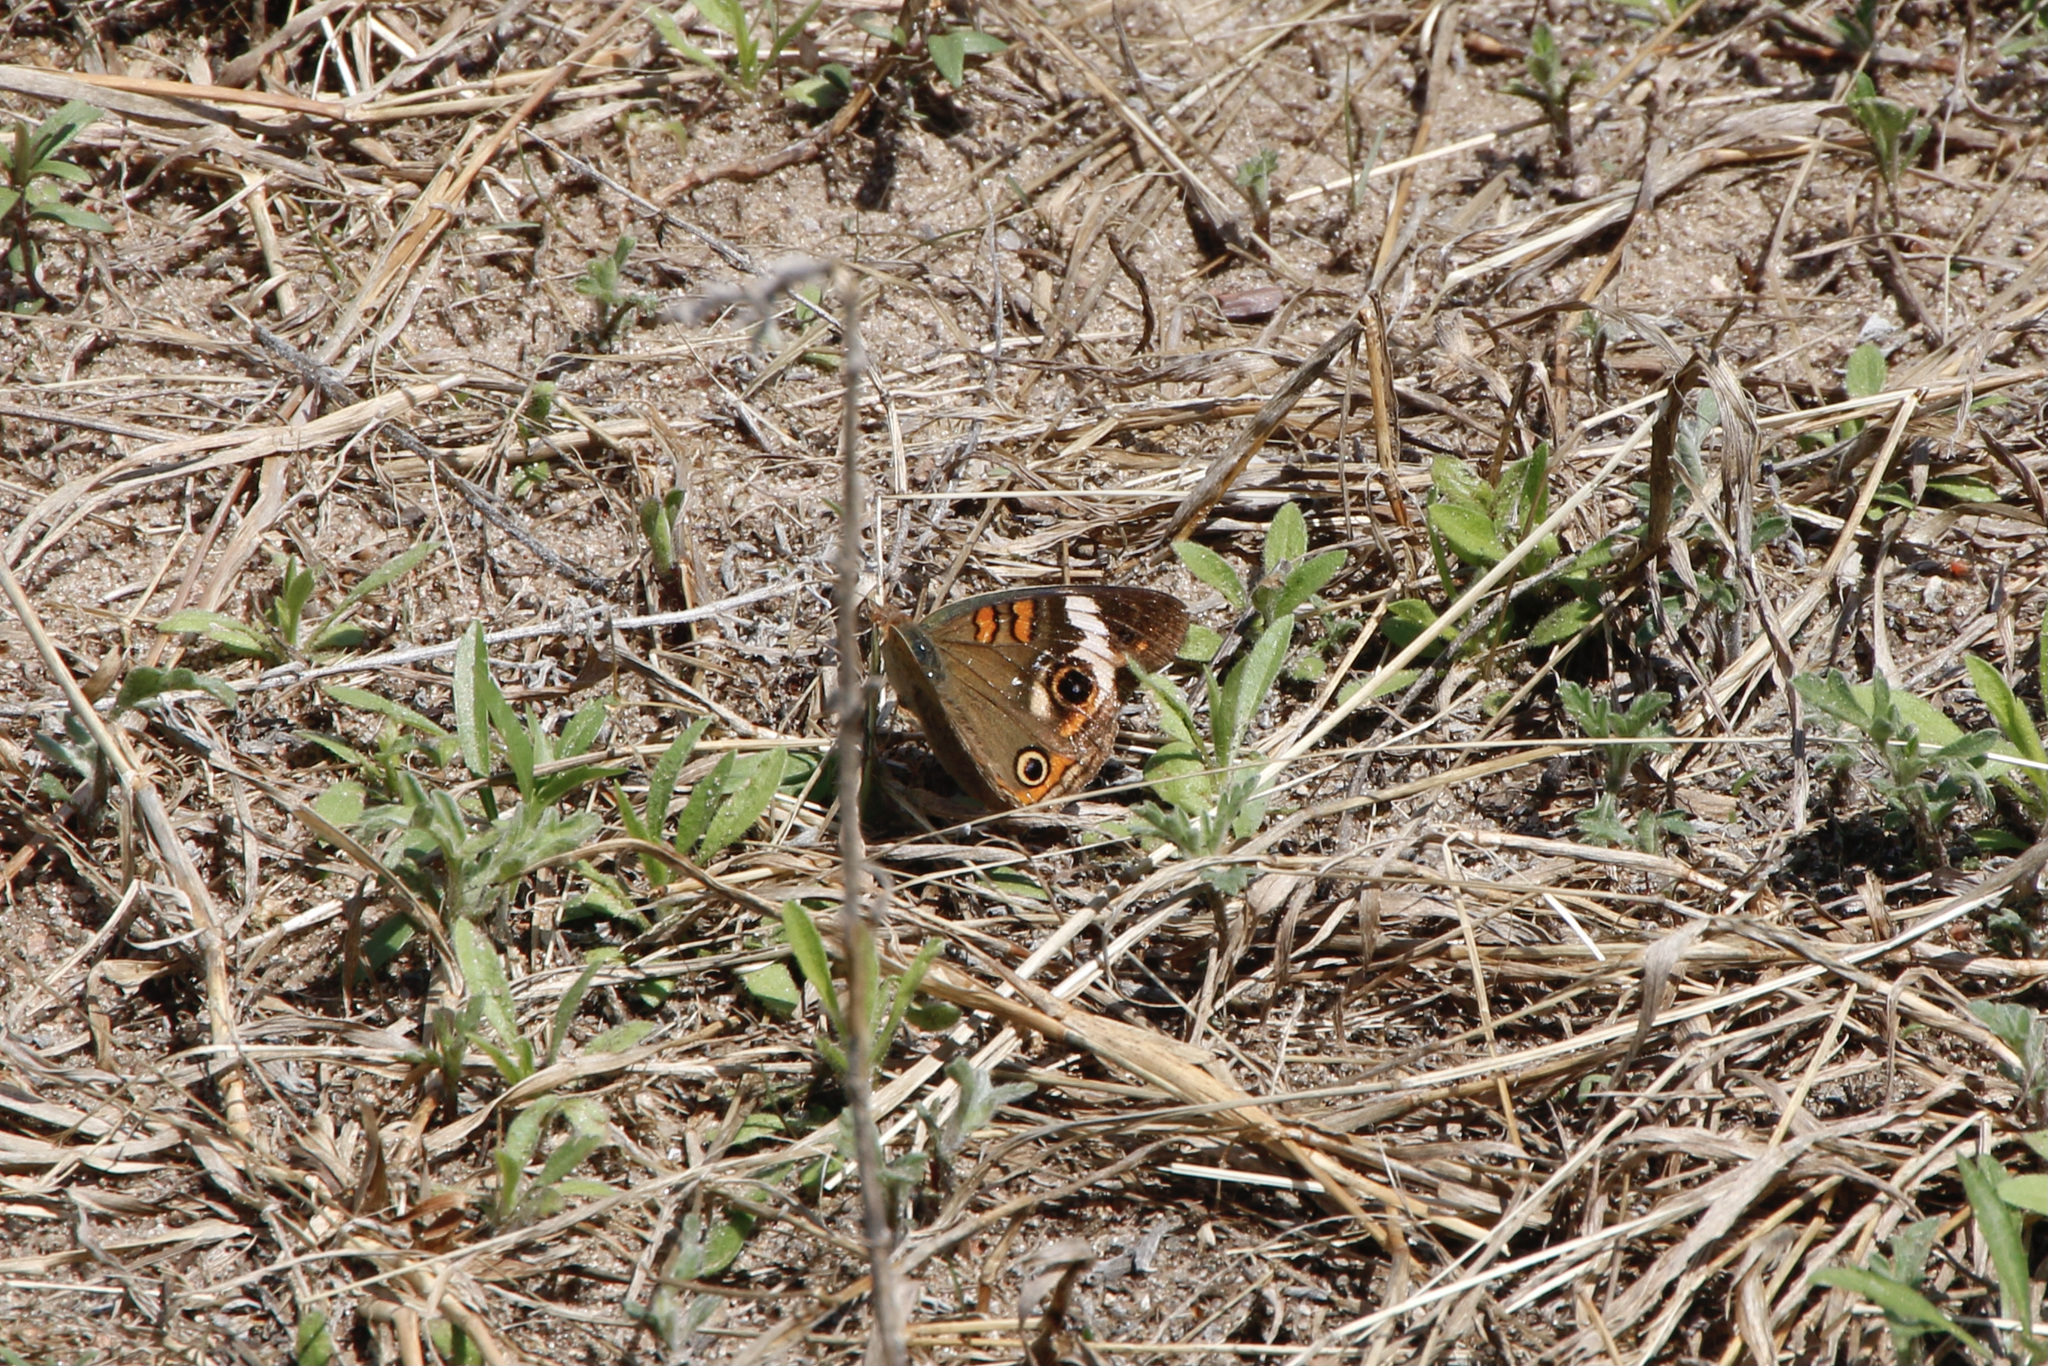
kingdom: Animalia
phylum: Arthropoda
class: Insecta
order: Lepidoptera
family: Nymphalidae
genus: Junonia
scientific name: Junonia coenia
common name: Common buckeye
